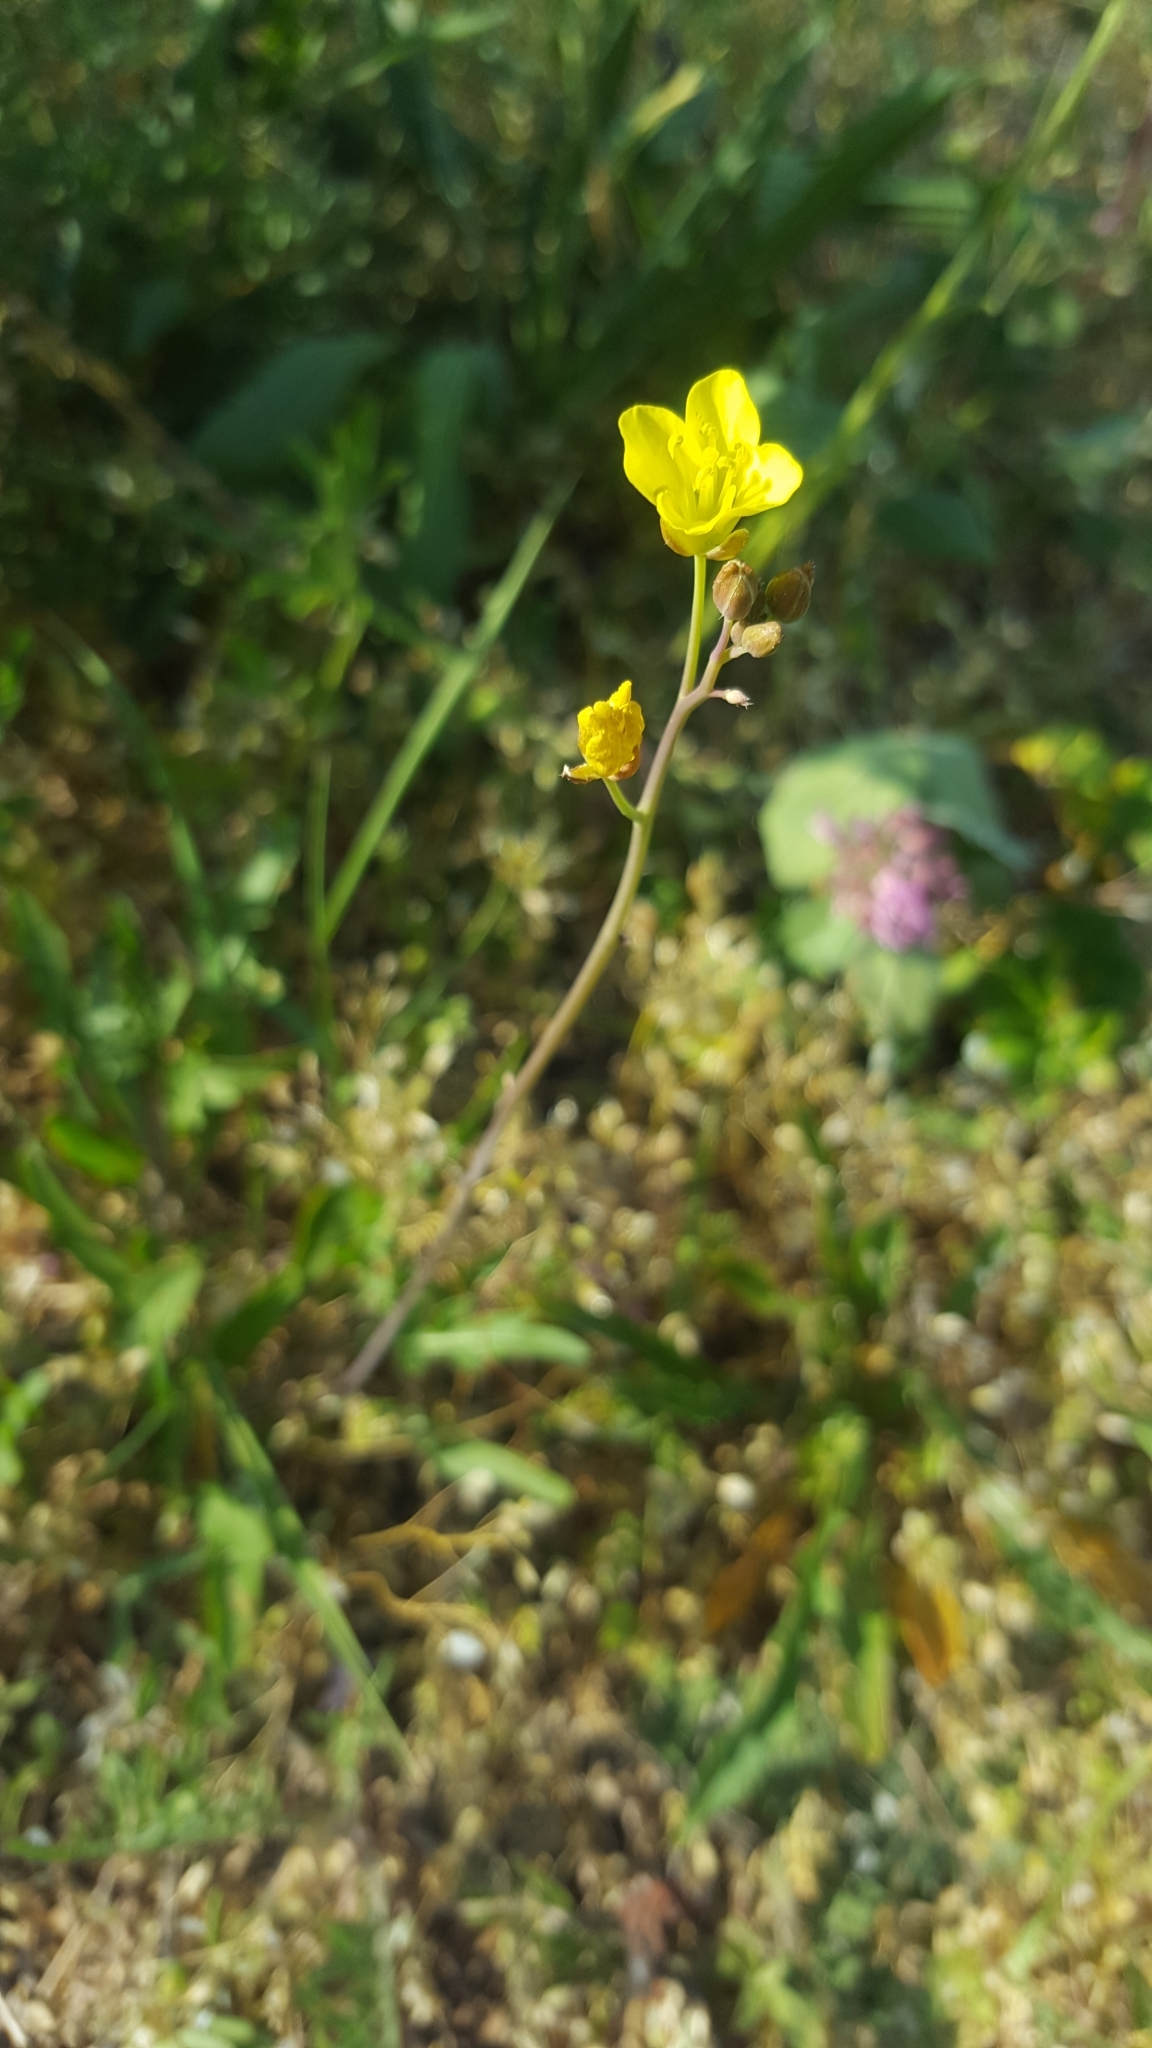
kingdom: Plantae
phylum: Tracheophyta
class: Magnoliopsida
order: Brassicales
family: Brassicaceae
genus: Diplotaxis
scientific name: Diplotaxis muralis
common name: Annual wall-rocket
